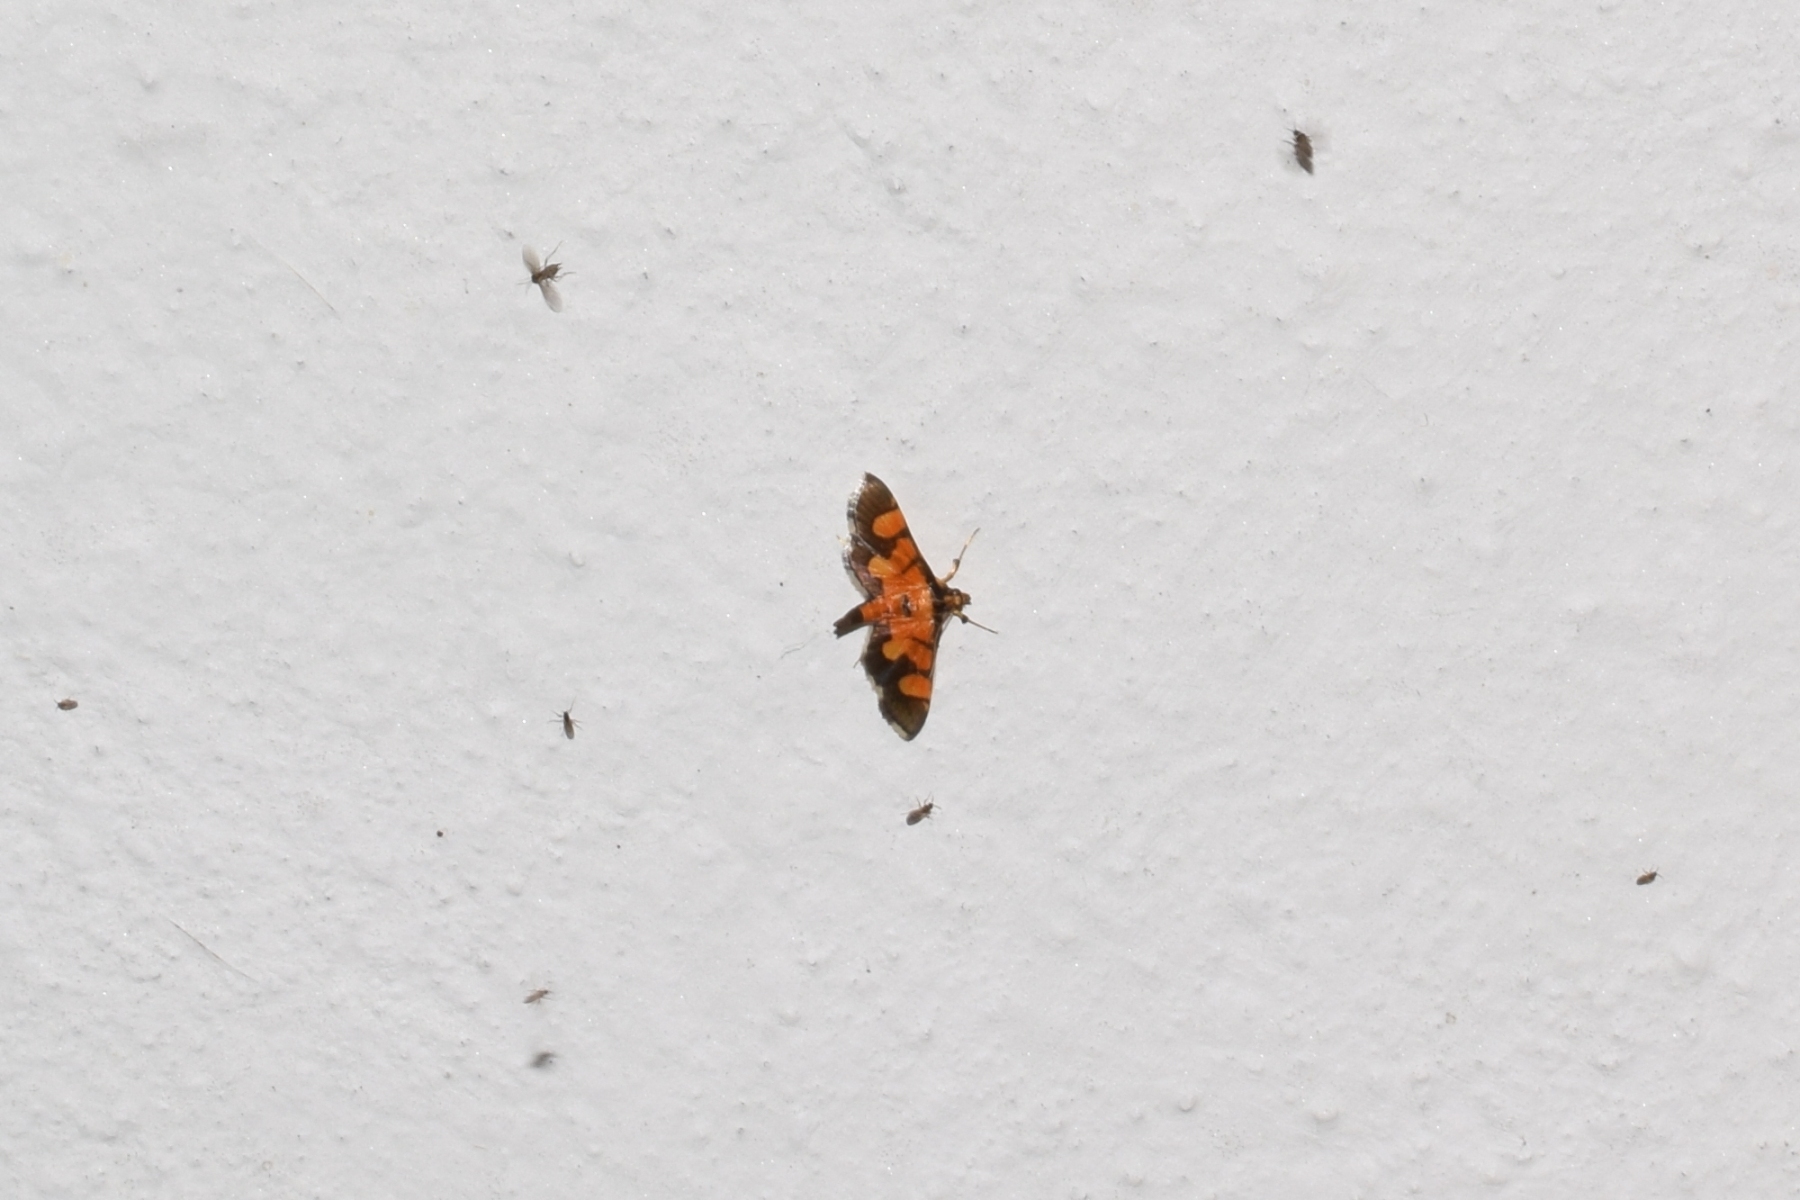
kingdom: Animalia
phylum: Arthropoda
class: Insecta
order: Lepidoptera
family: Crambidae
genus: Aethaloessa
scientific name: Aethaloessa calidalis
